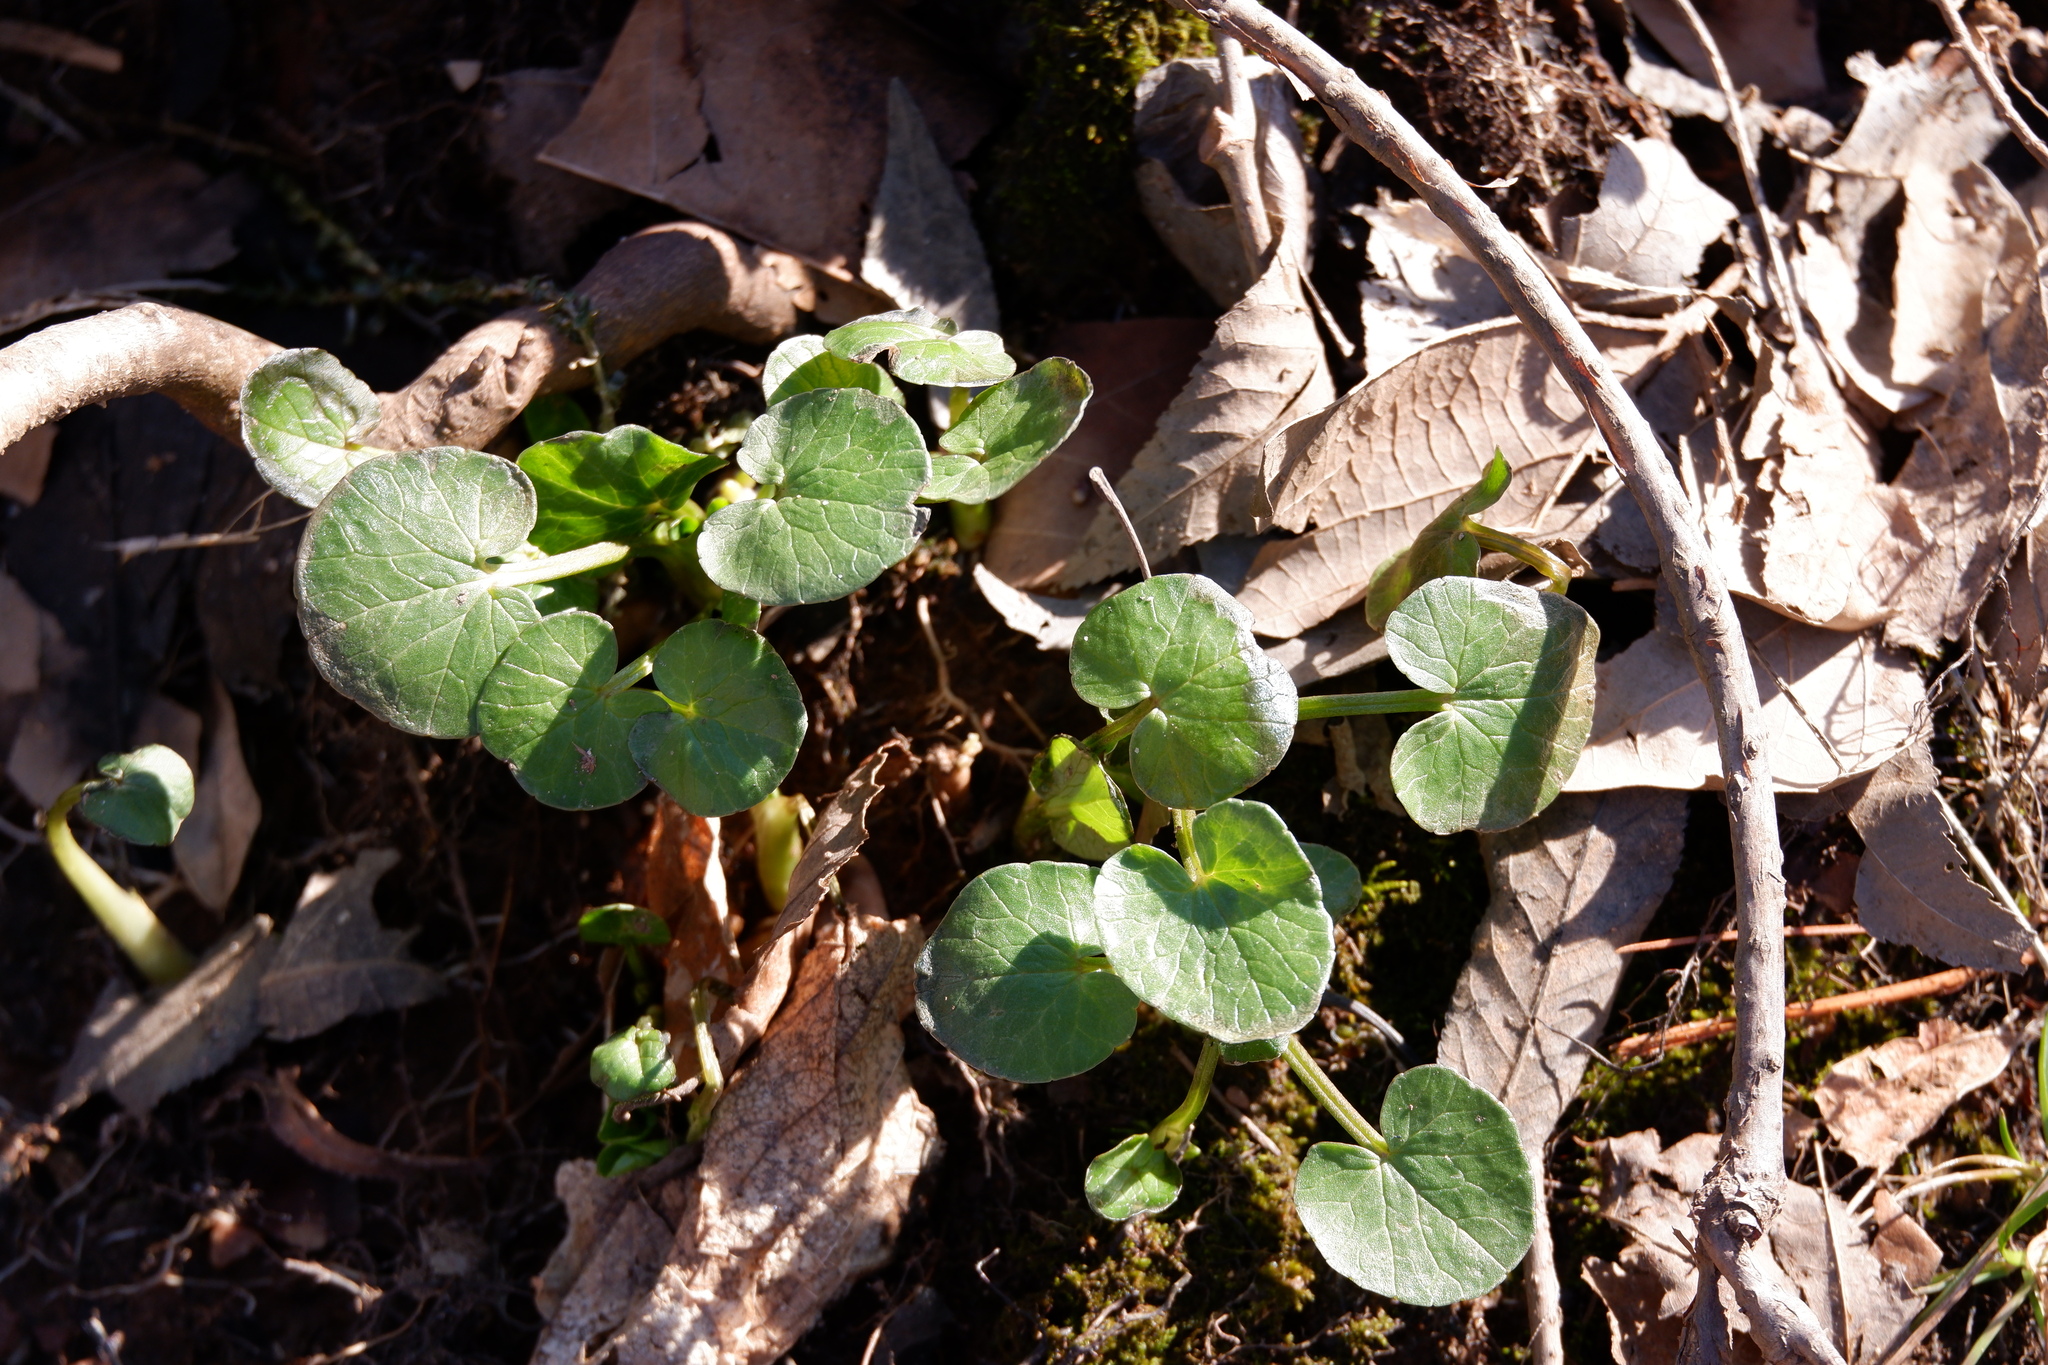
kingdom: Plantae
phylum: Tracheophyta
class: Magnoliopsida
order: Ranunculales
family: Ranunculaceae
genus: Ficaria
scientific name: Ficaria verna
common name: Lesser celandine
